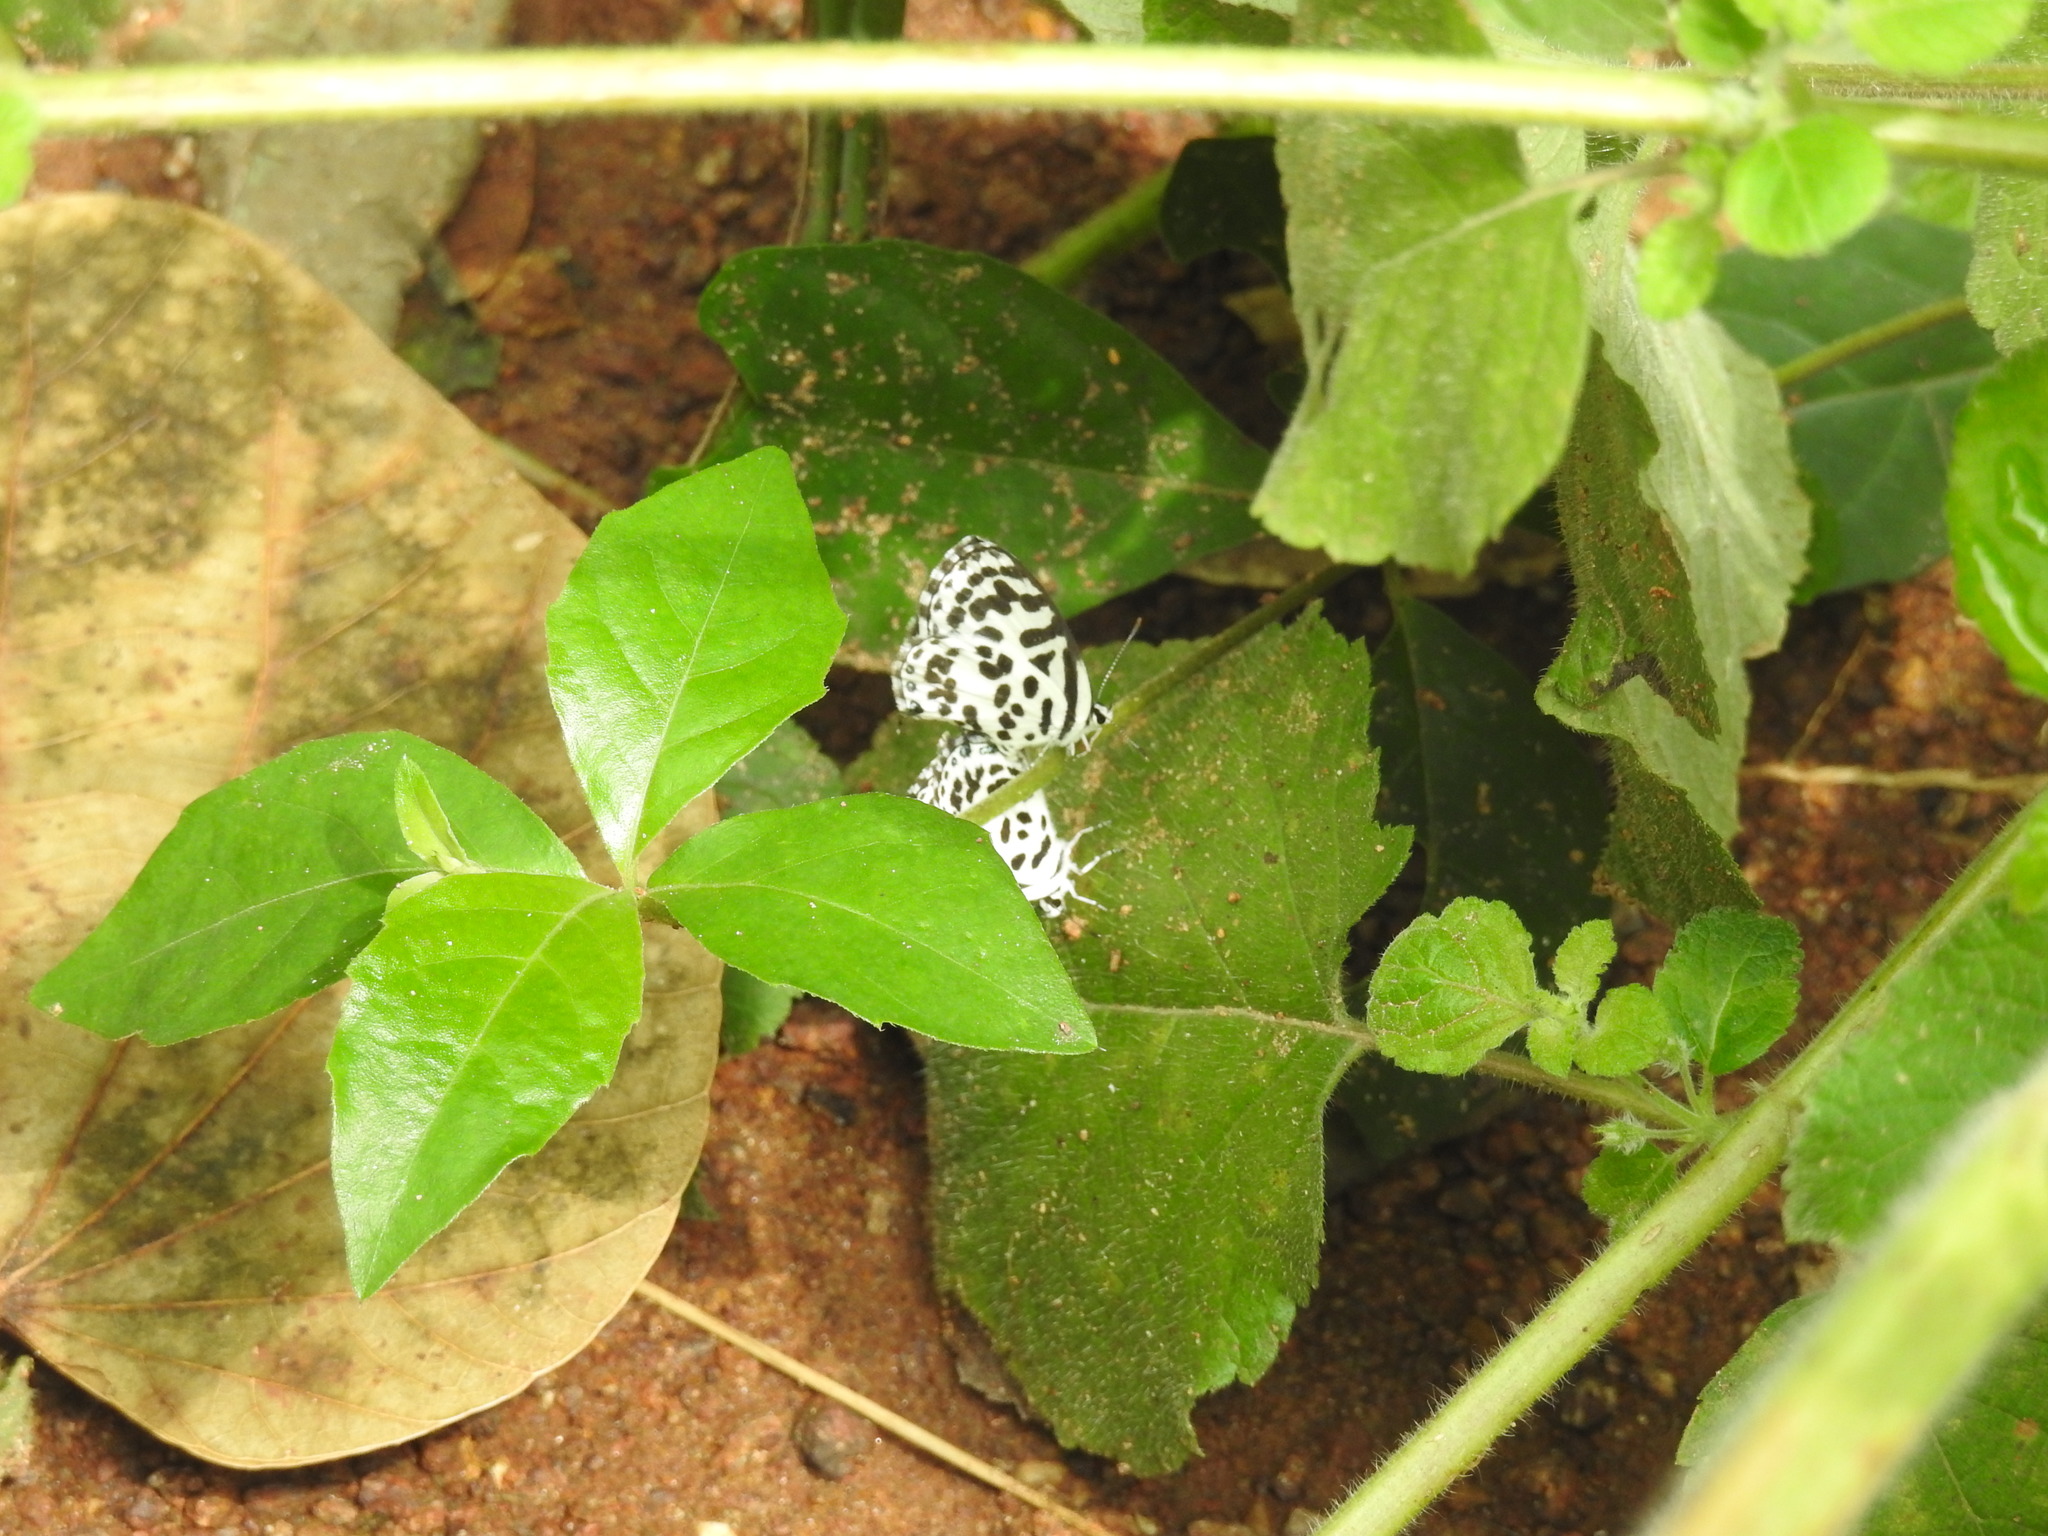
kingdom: Animalia
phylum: Arthropoda
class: Insecta
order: Lepidoptera
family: Lycaenidae
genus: Castalius
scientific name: Castalius rosimon
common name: Common pierrot
